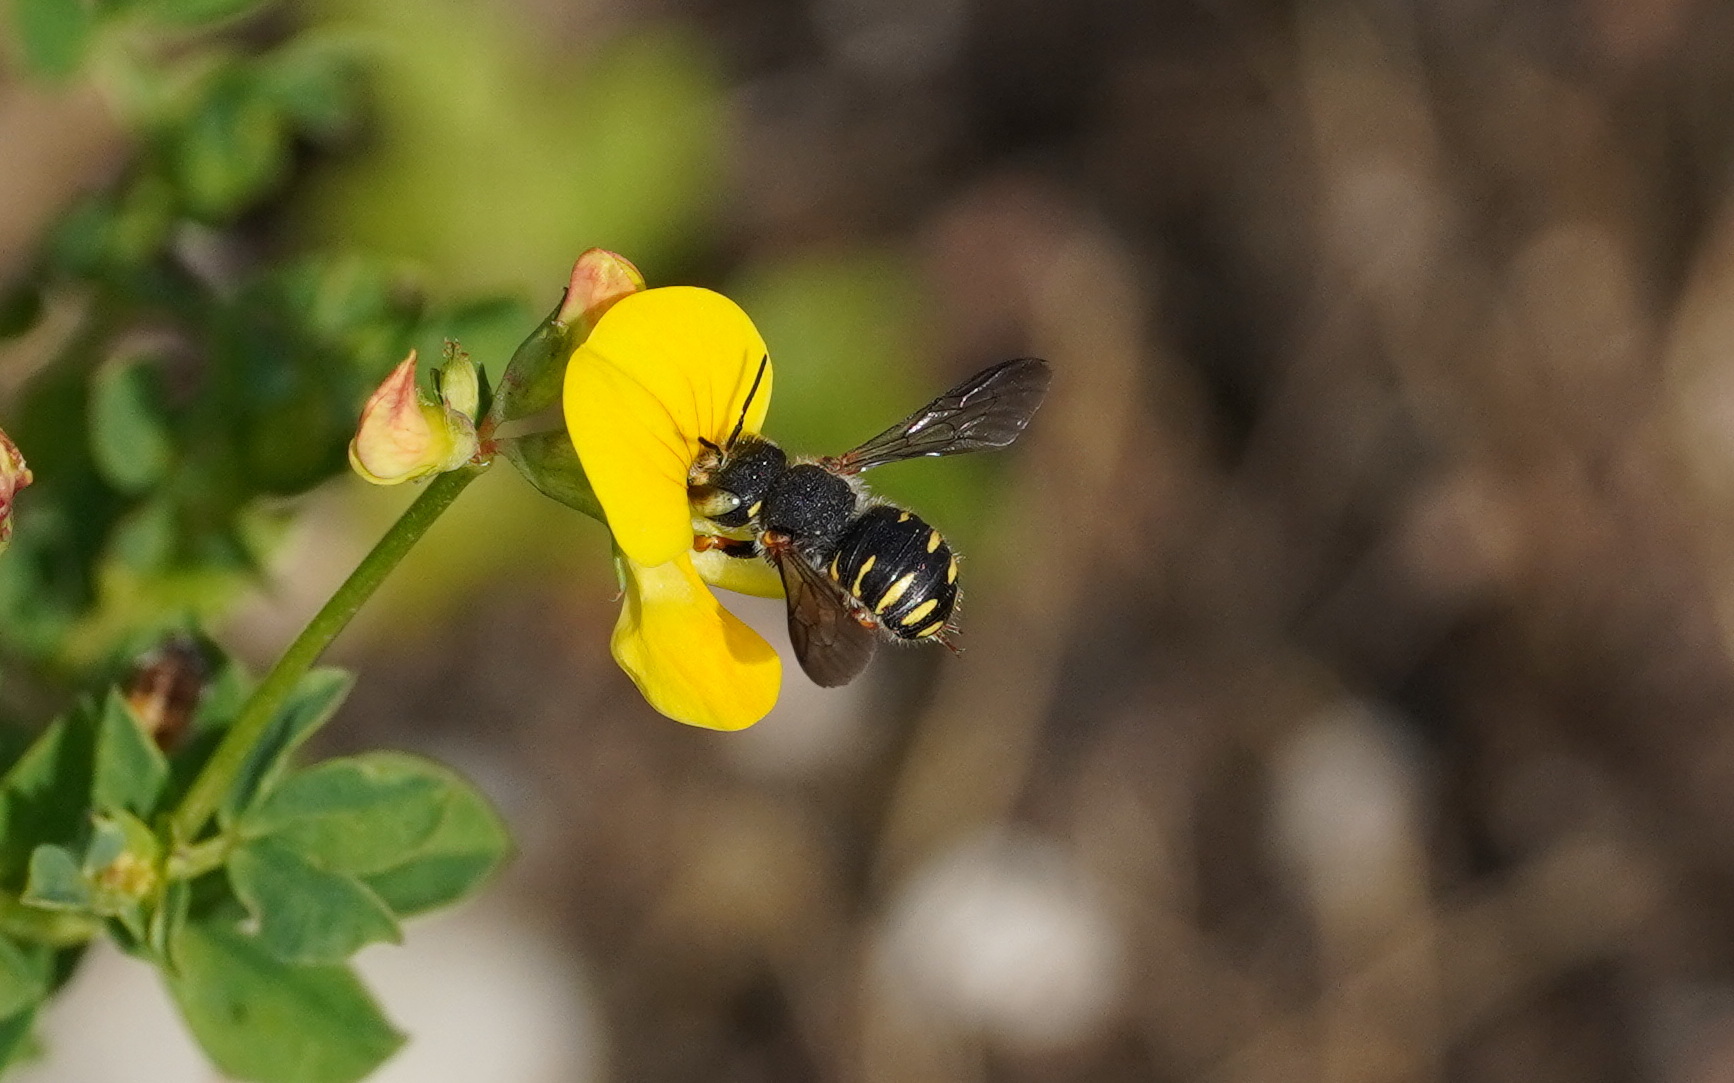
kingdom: Animalia
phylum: Arthropoda
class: Insecta
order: Hymenoptera
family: Megachilidae
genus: Anthidium
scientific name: Anthidium oblongatum
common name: Oblong wool carder bee
